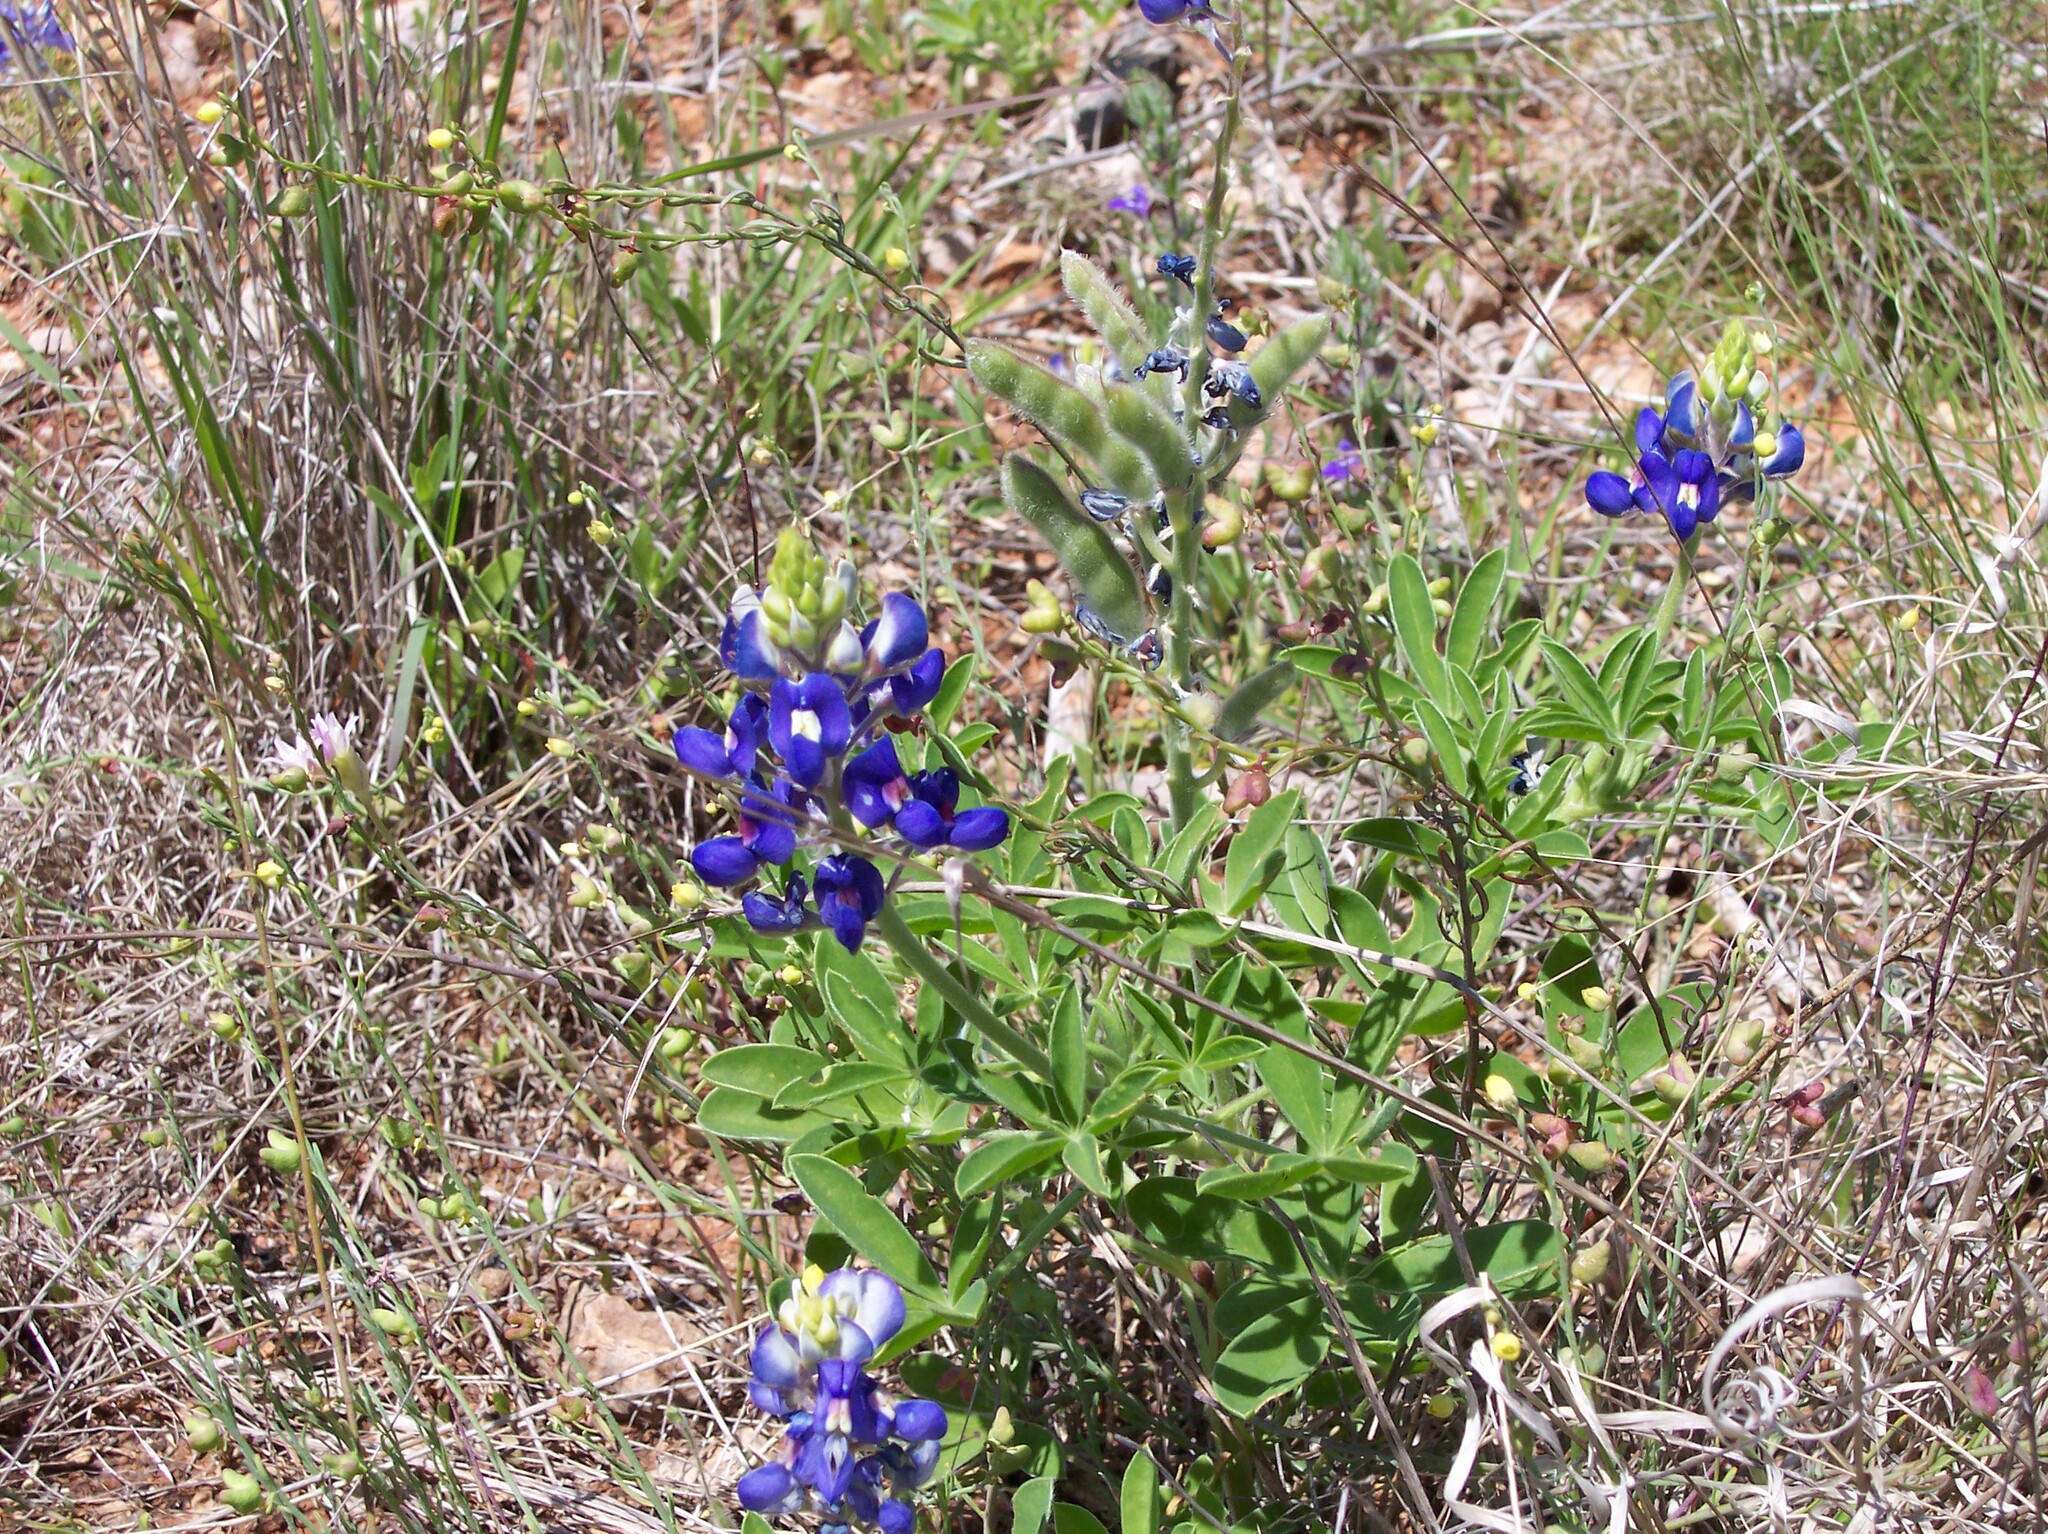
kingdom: Plantae
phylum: Tracheophyta
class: Magnoliopsida
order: Fabales
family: Fabaceae
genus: Lupinus
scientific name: Lupinus texensis
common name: Texas bluebonnet
